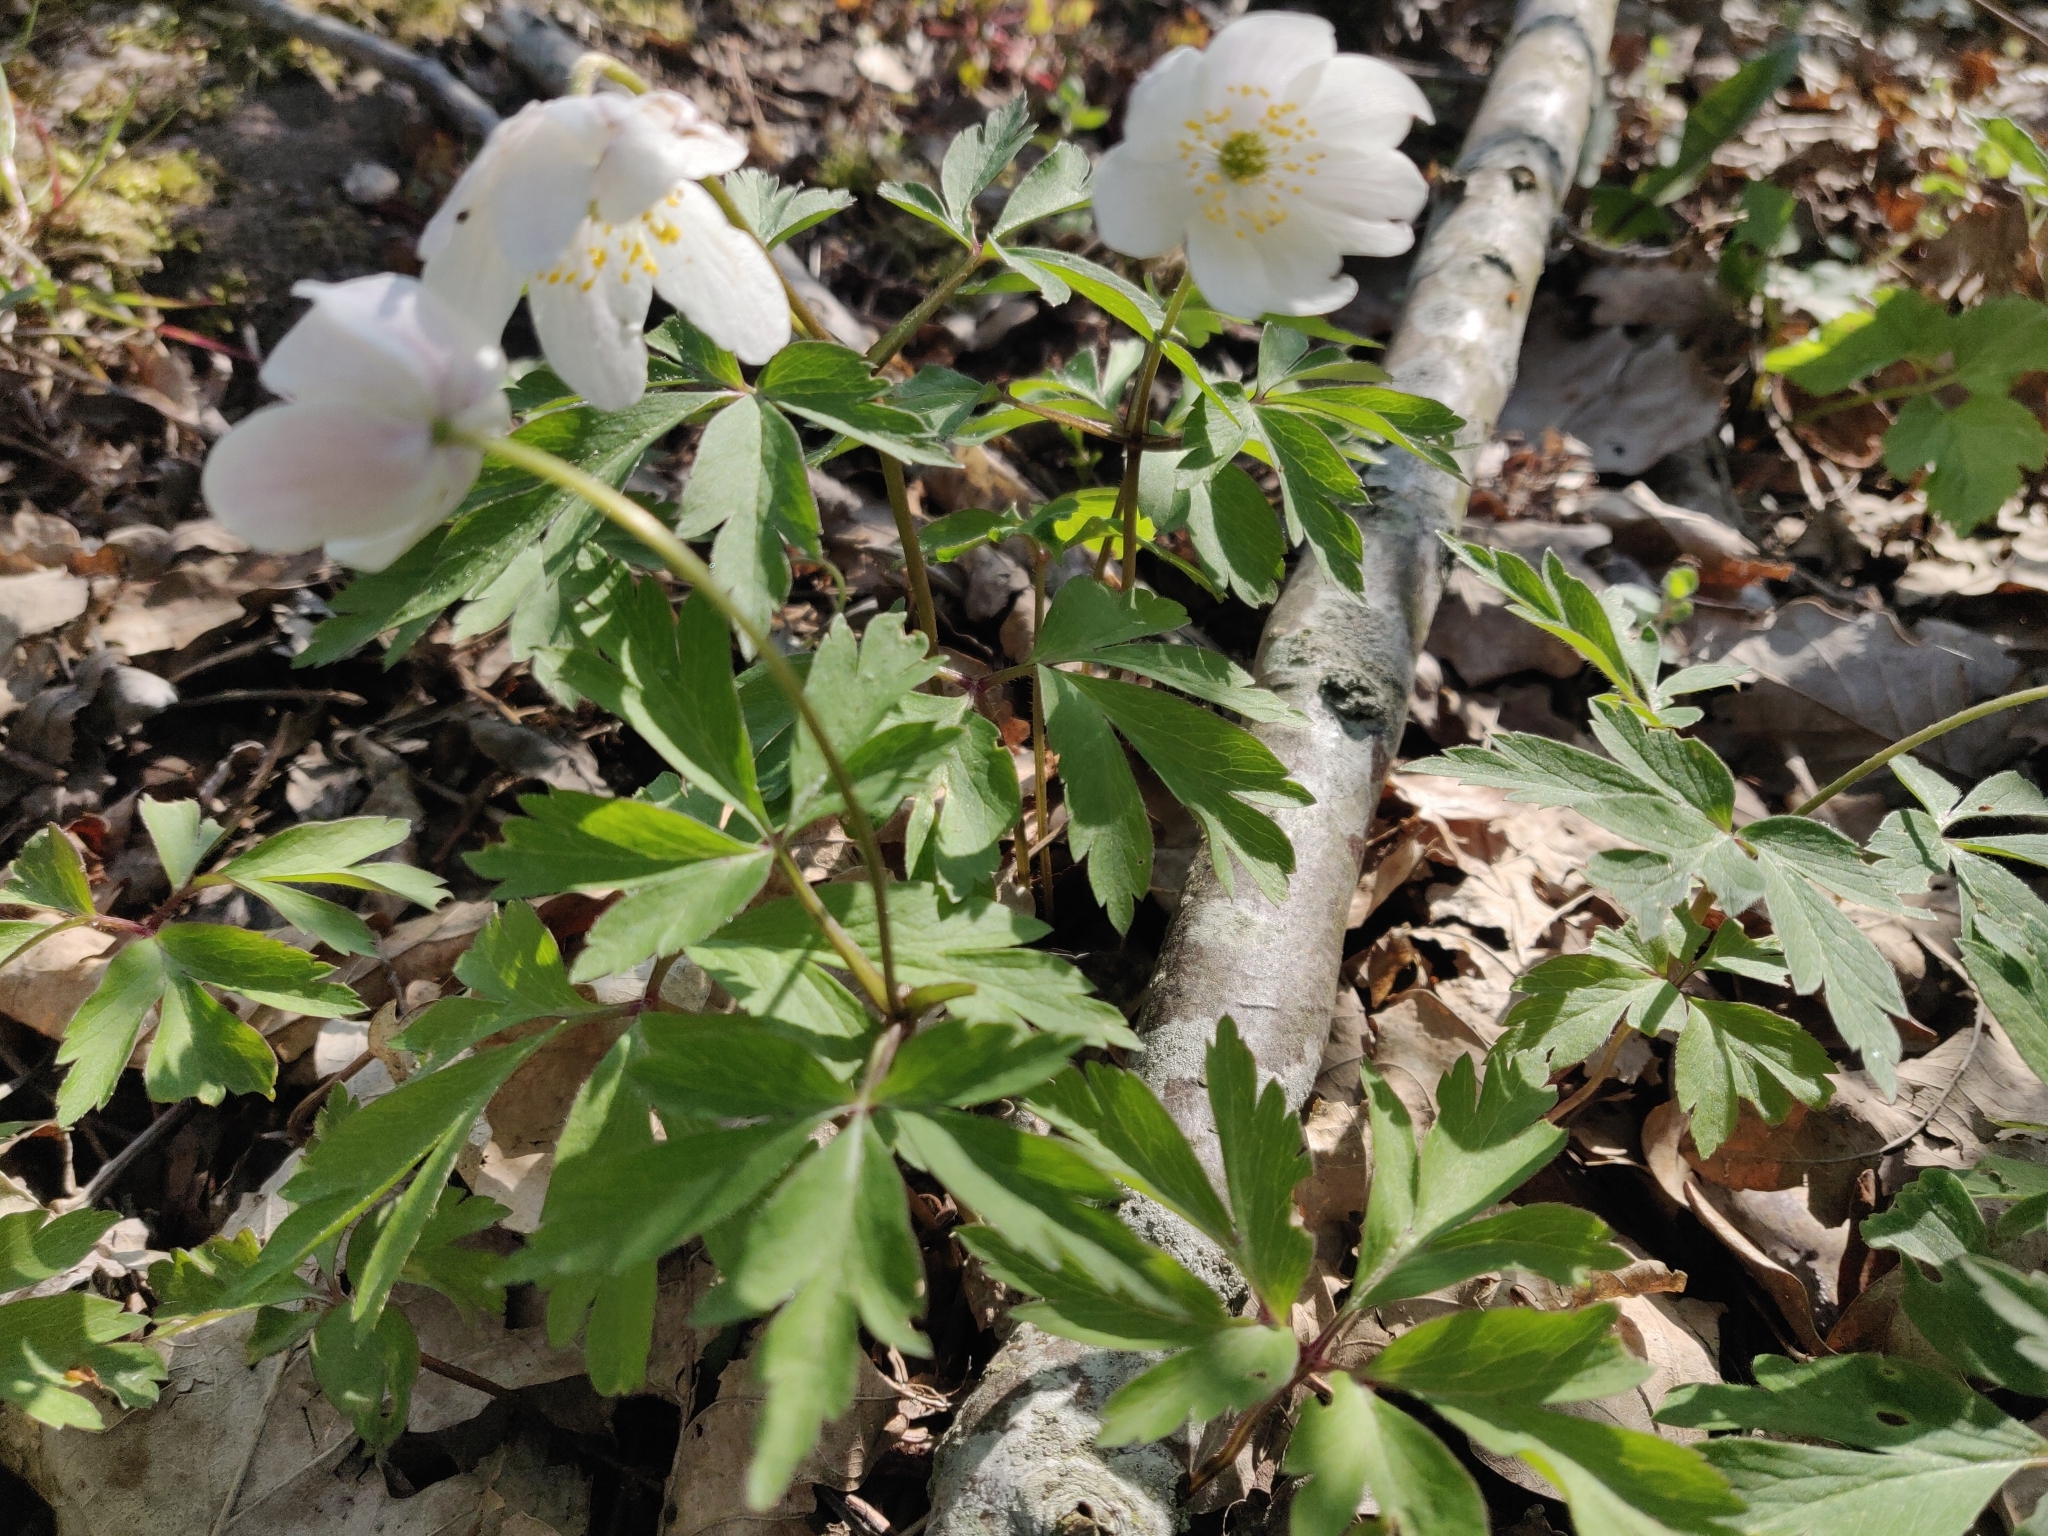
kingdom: Plantae
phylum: Tracheophyta
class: Magnoliopsida
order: Ranunculales
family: Ranunculaceae
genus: Anemone
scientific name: Anemone nemorosa
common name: Wood anemone
